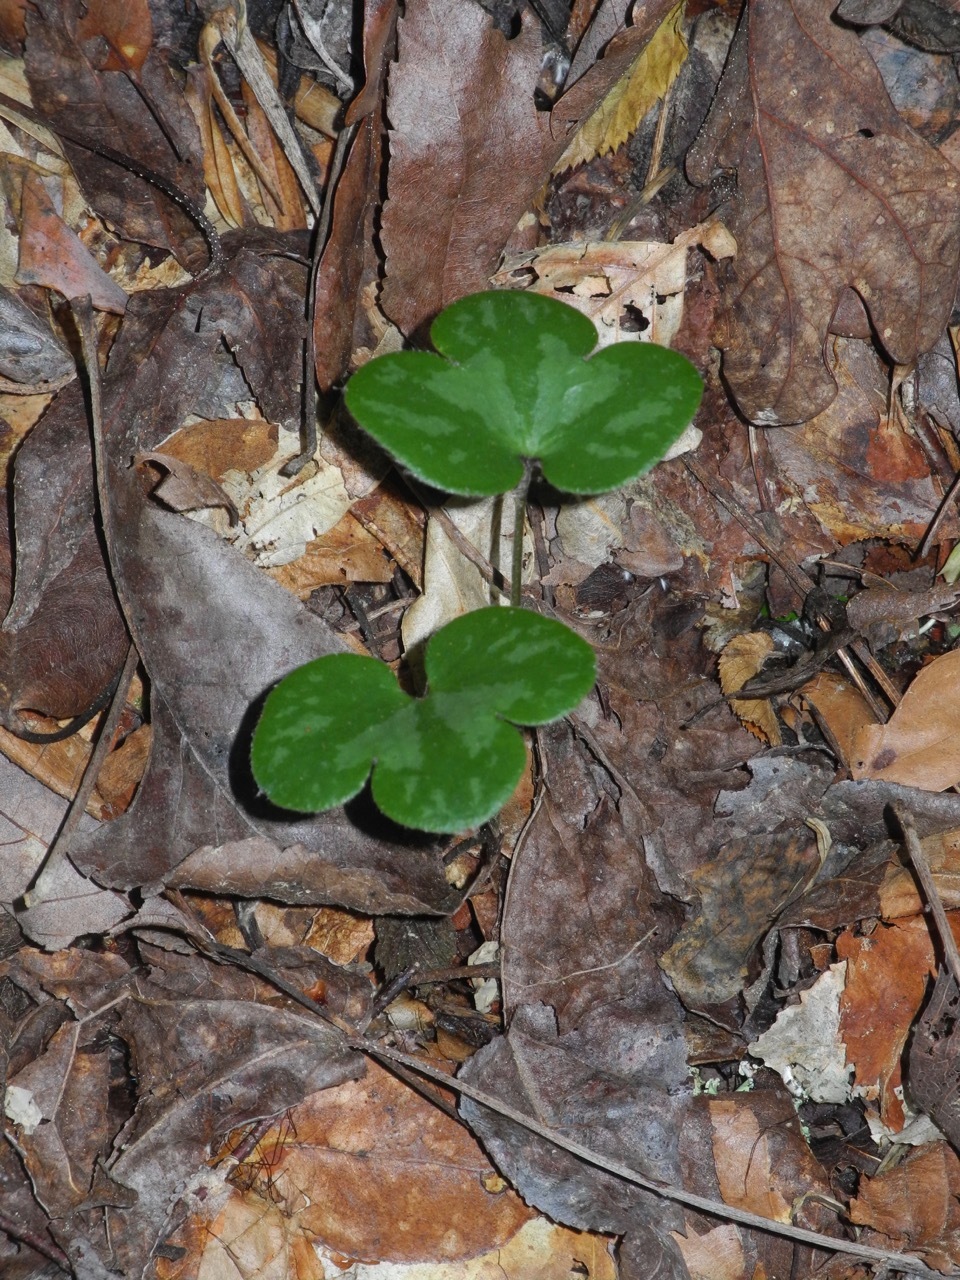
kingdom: Plantae
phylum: Tracheophyta
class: Magnoliopsida
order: Ranunculales
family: Ranunculaceae
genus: Hepatica
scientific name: Hepatica americana
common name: American hepatica
